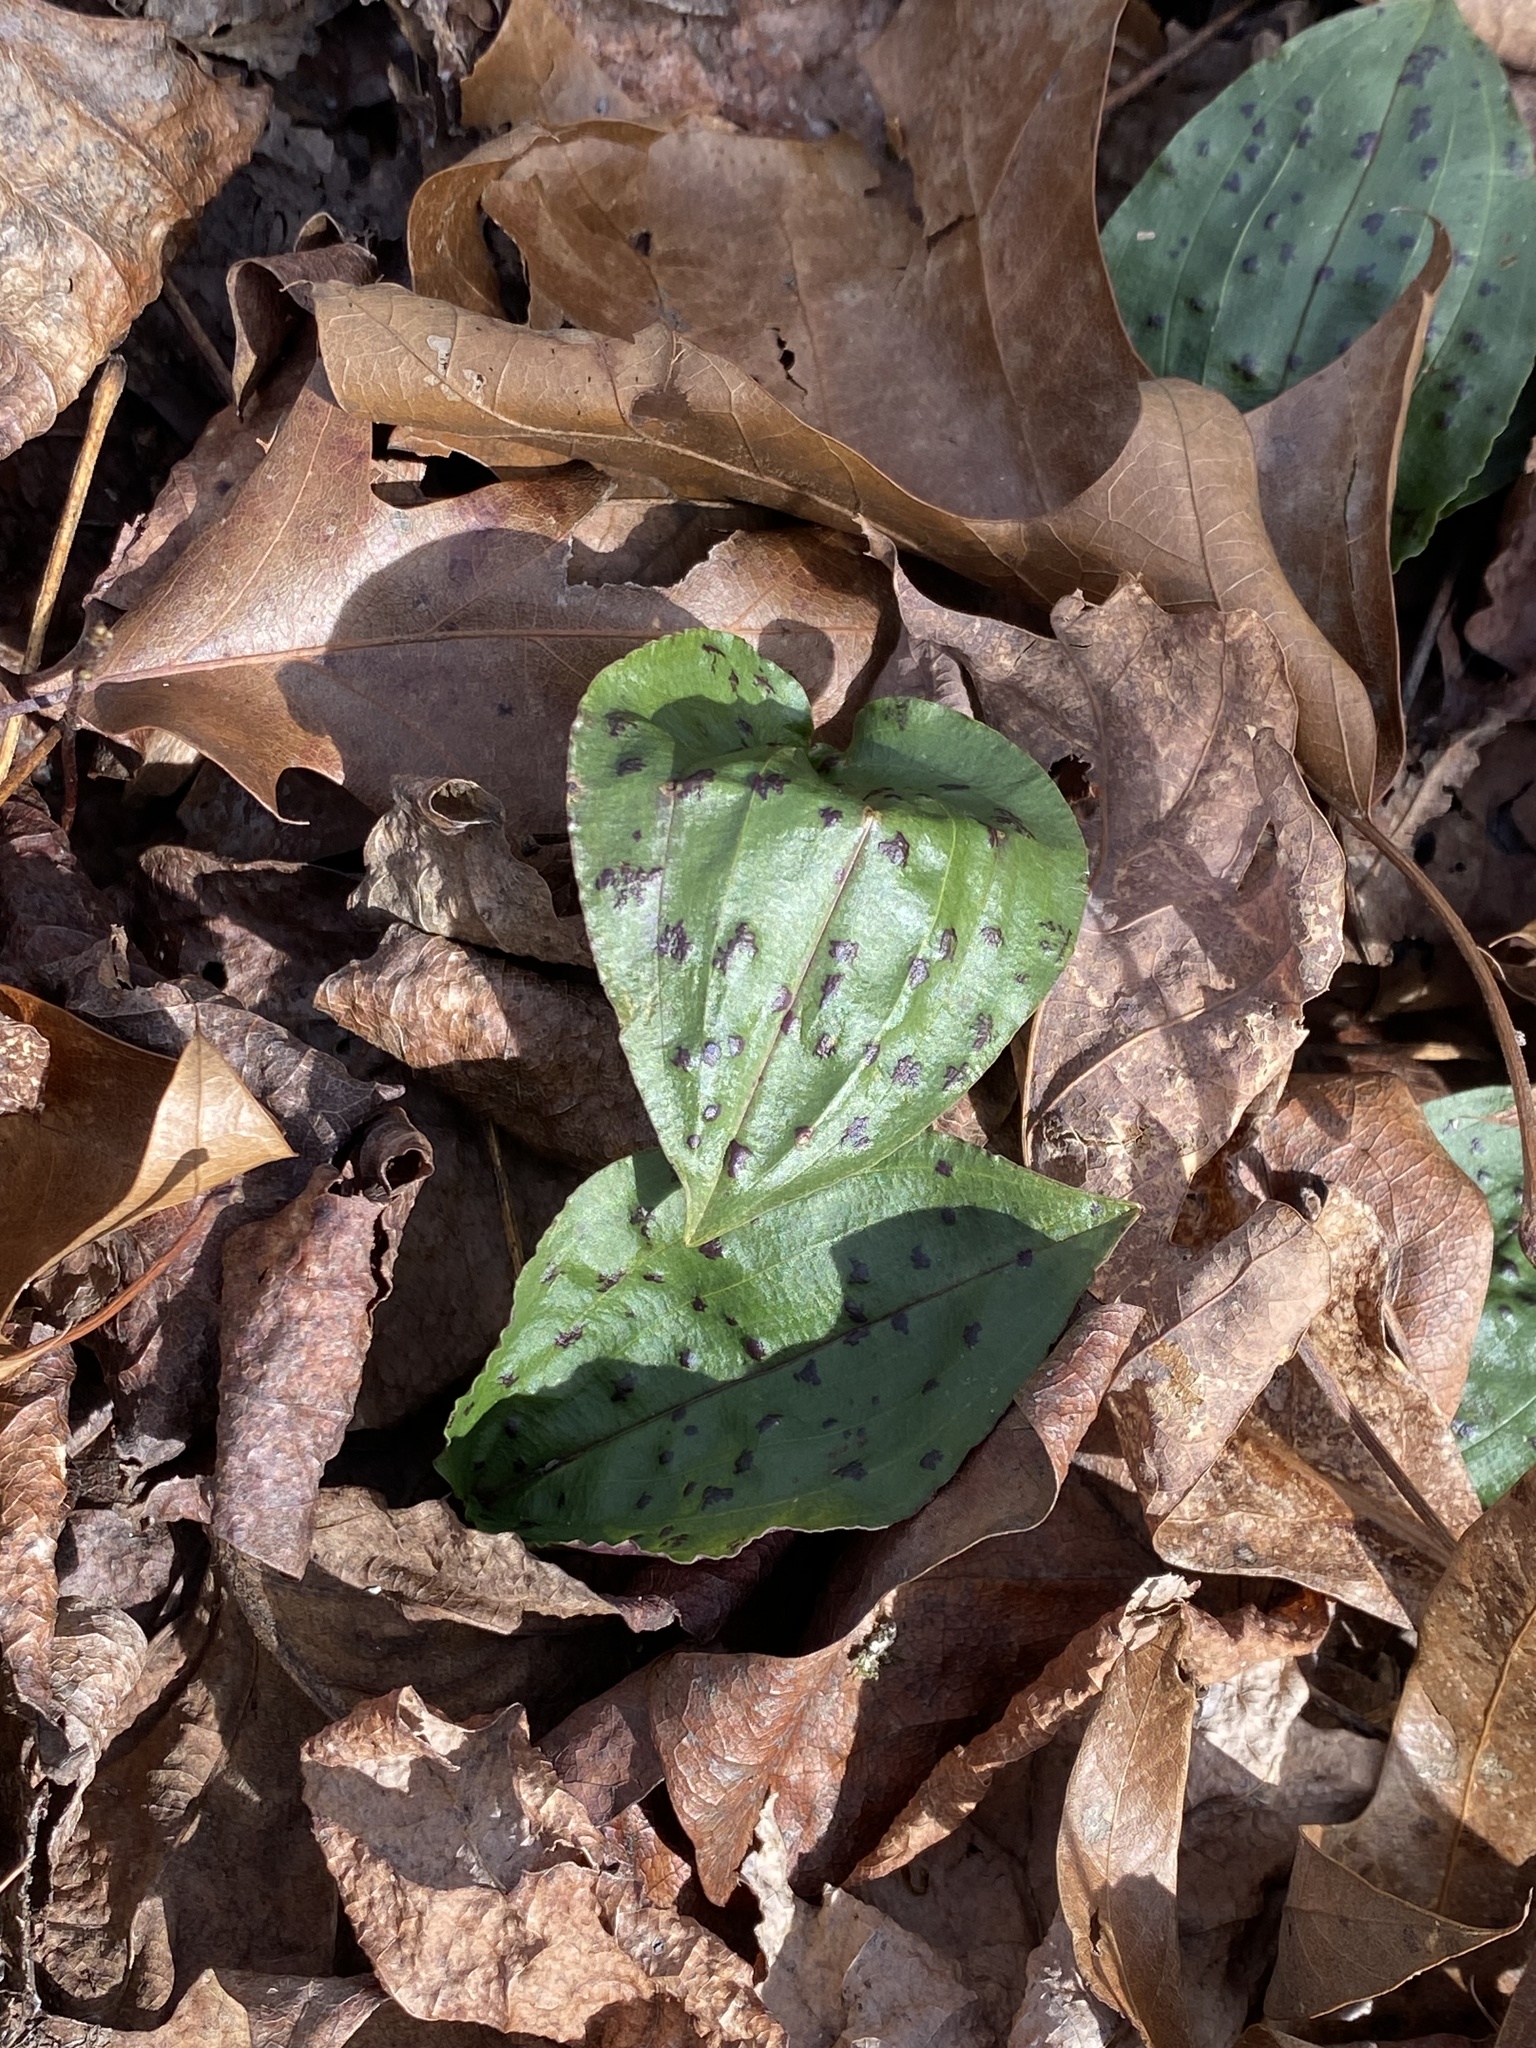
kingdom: Plantae
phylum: Tracheophyta
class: Liliopsida
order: Asparagales
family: Orchidaceae
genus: Tipularia
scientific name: Tipularia discolor
